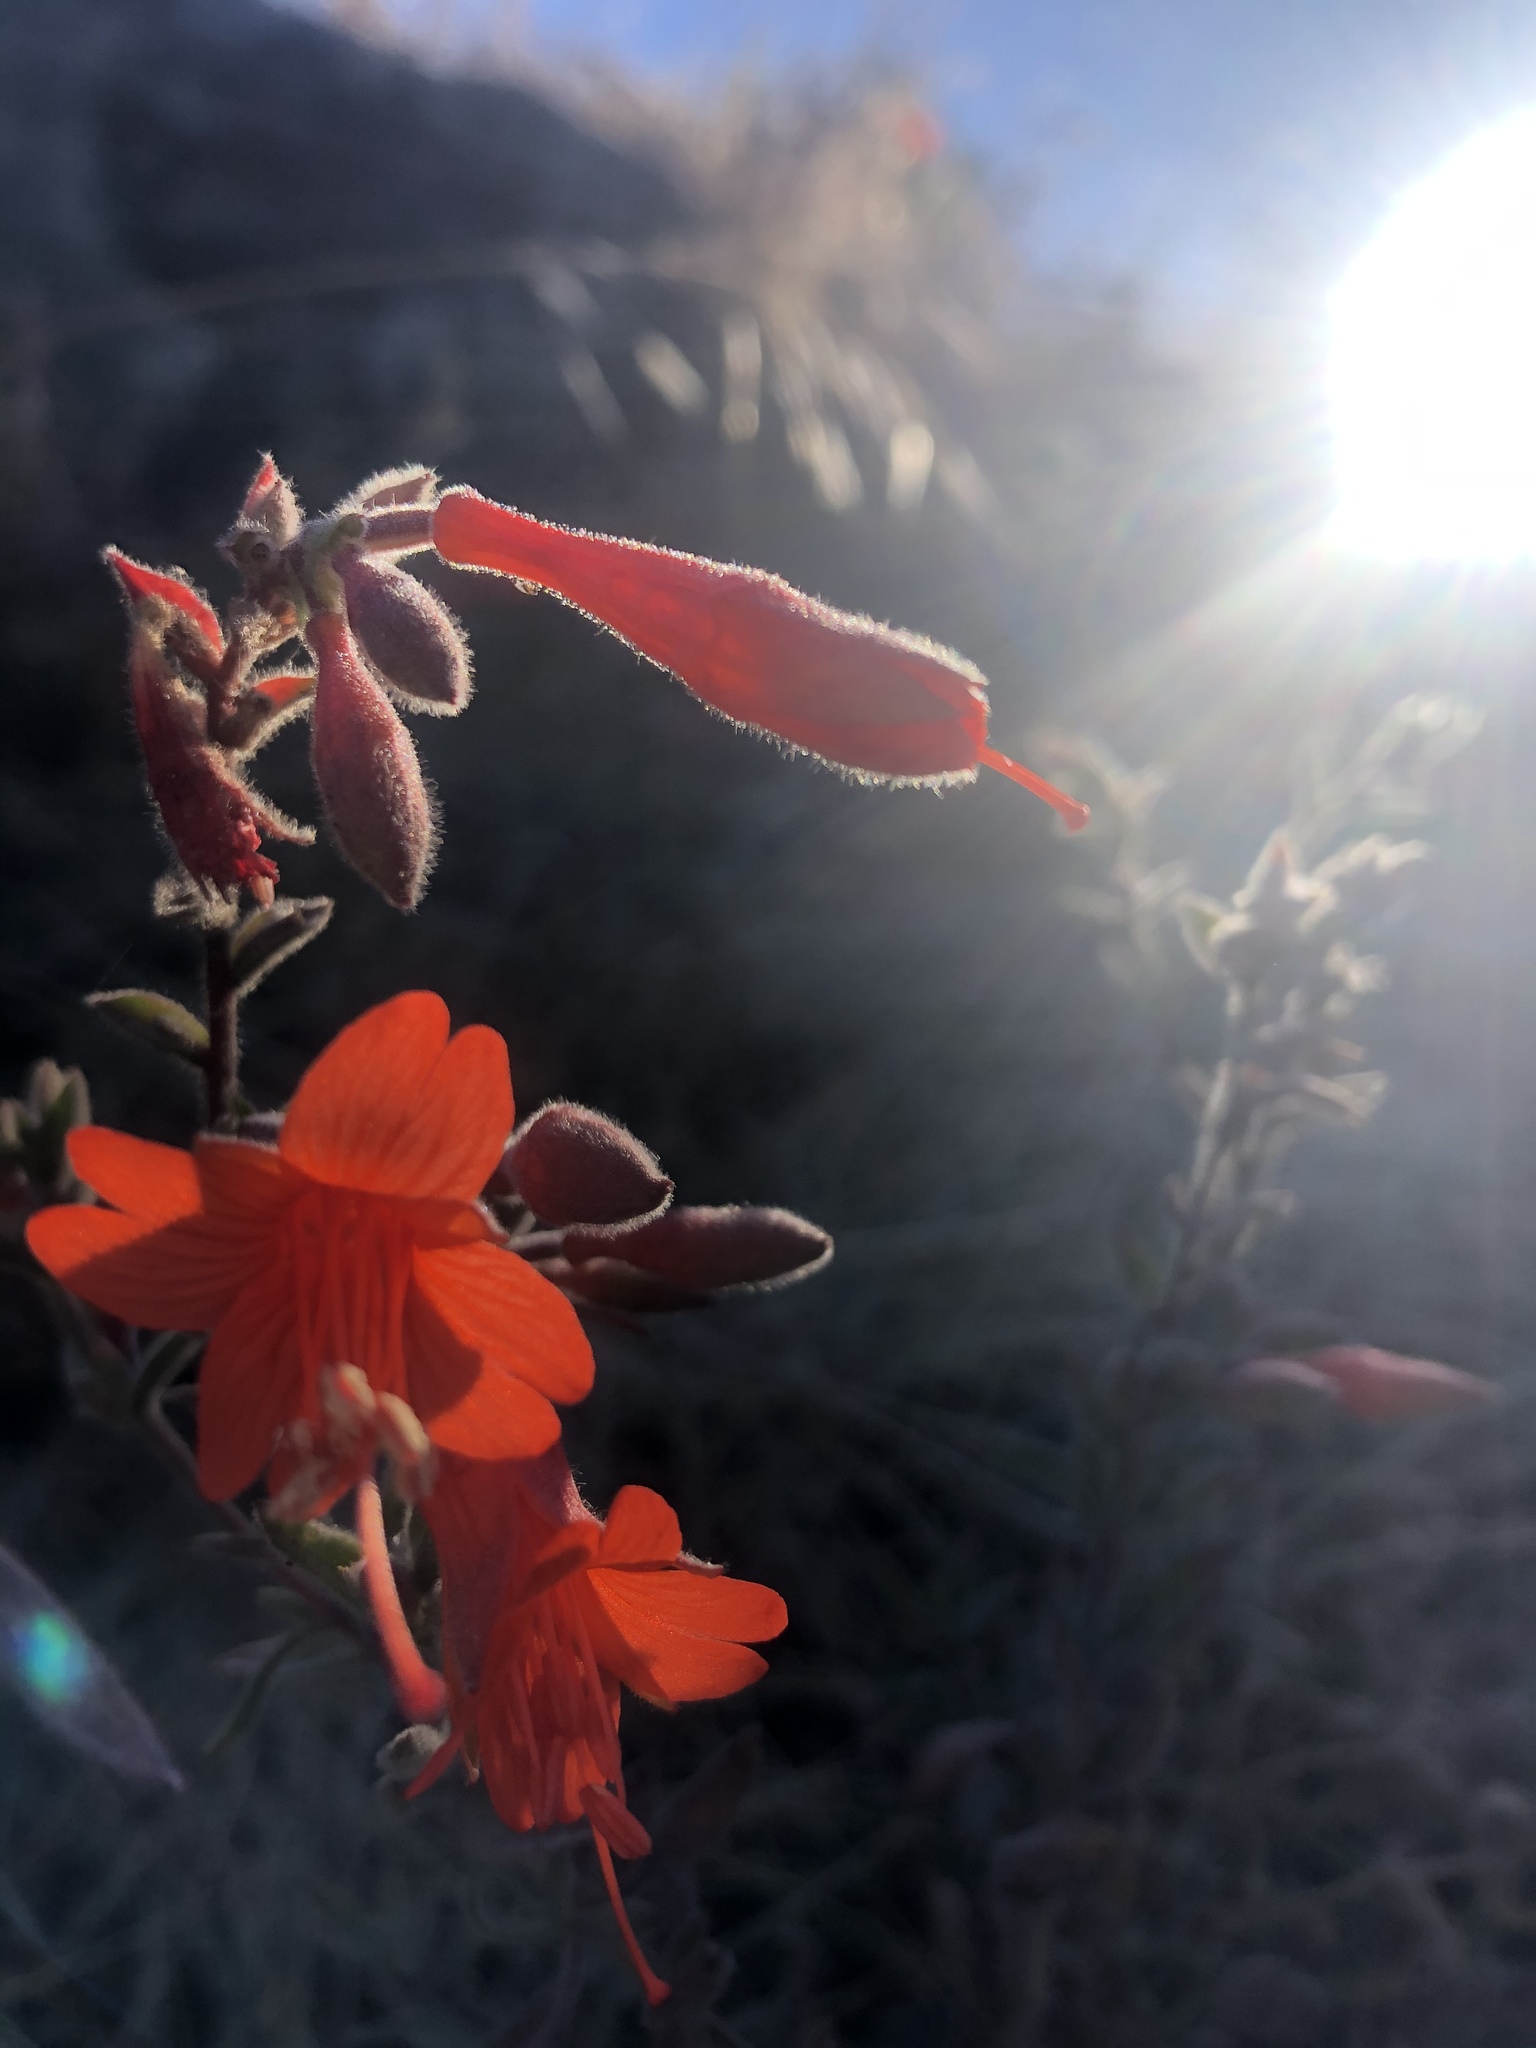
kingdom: Plantae
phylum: Tracheophyta
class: Magnoliopsida
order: Myrtales
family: Onagraceae
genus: Epilobium
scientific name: Epilobium canum
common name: California-fuchsia
